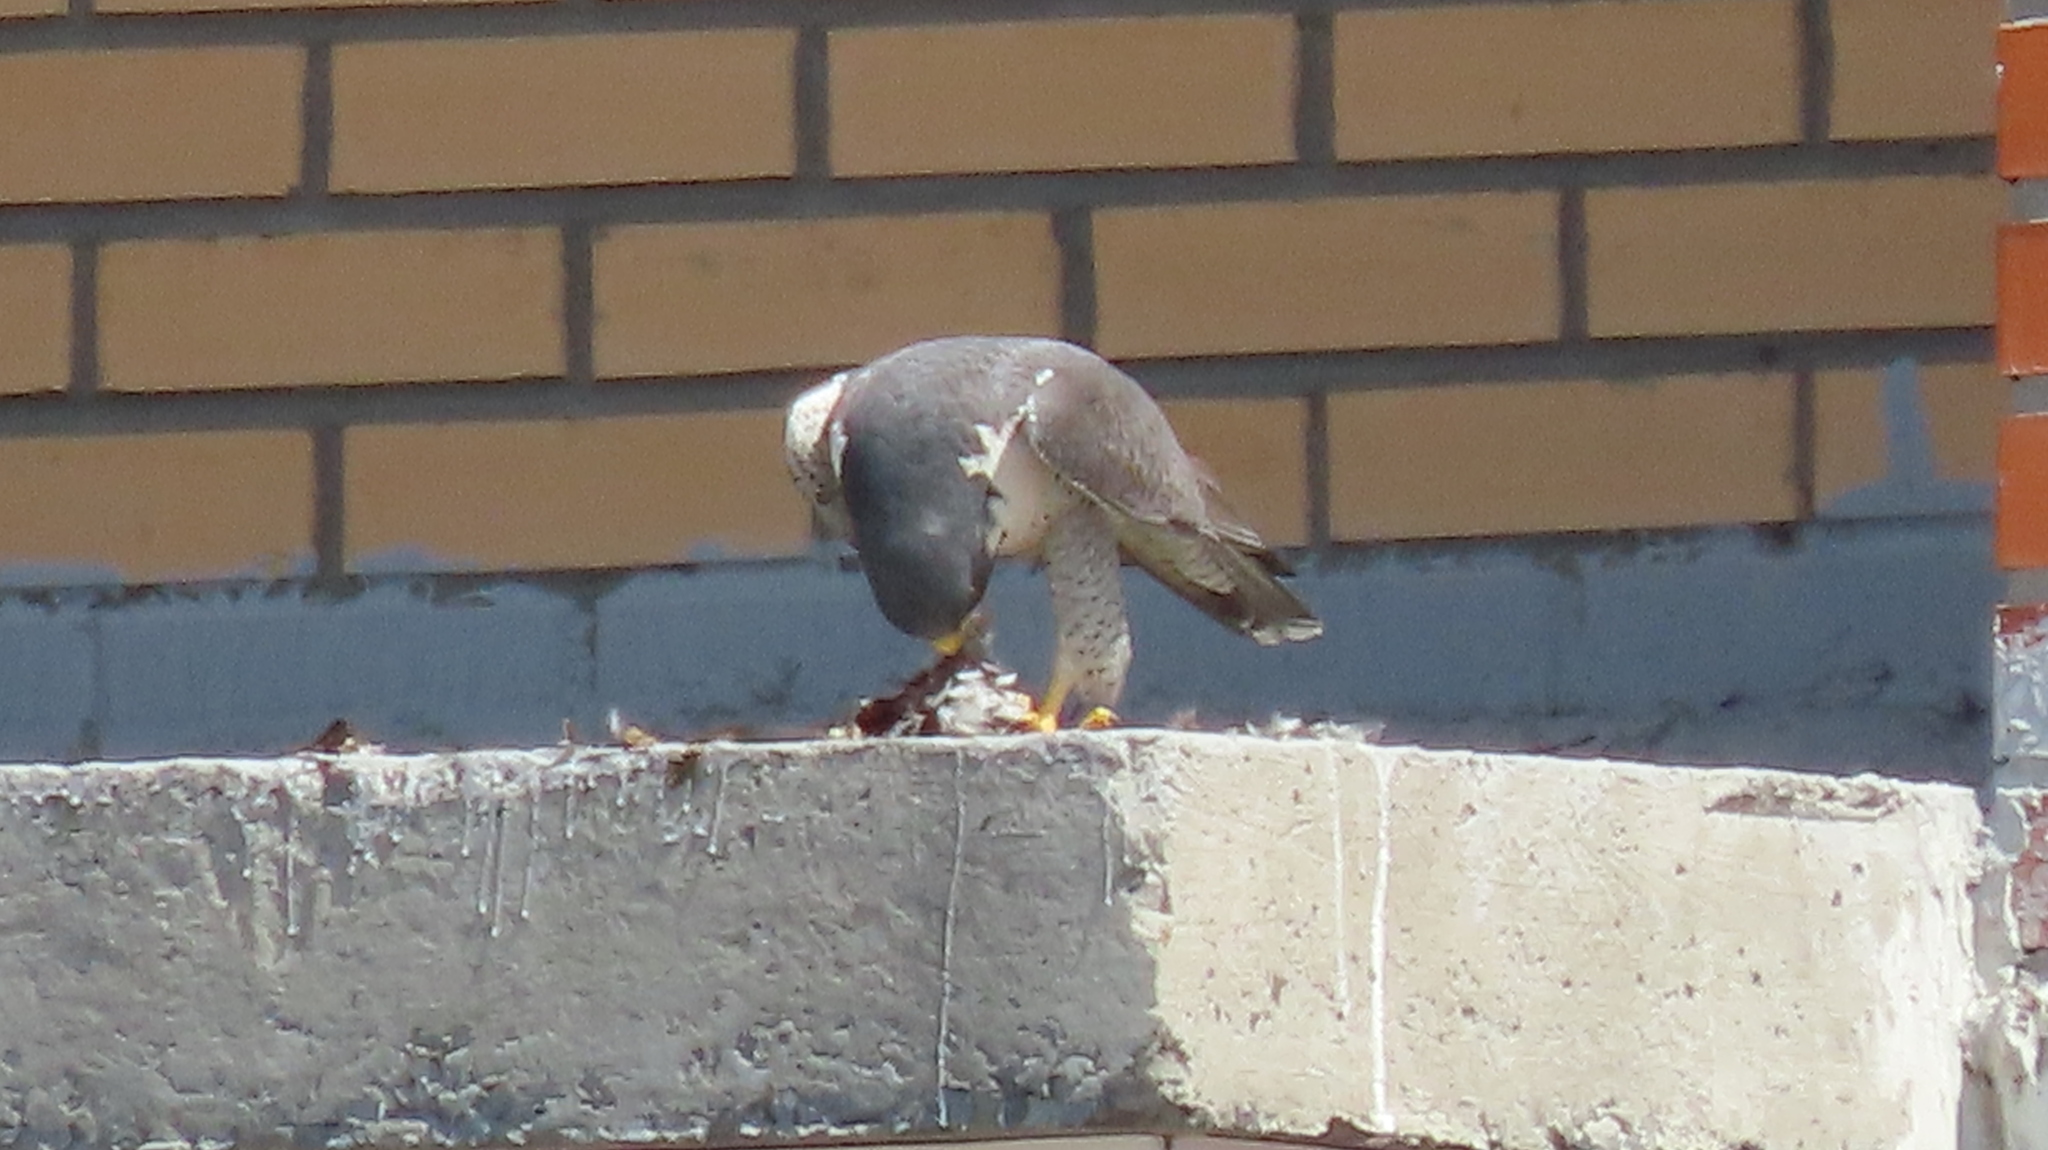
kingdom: Animalia
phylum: Chordata
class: Aves
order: Falconiformes
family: Falconidae
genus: Falco
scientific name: Falco peregrinus
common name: Peregrine falcon
